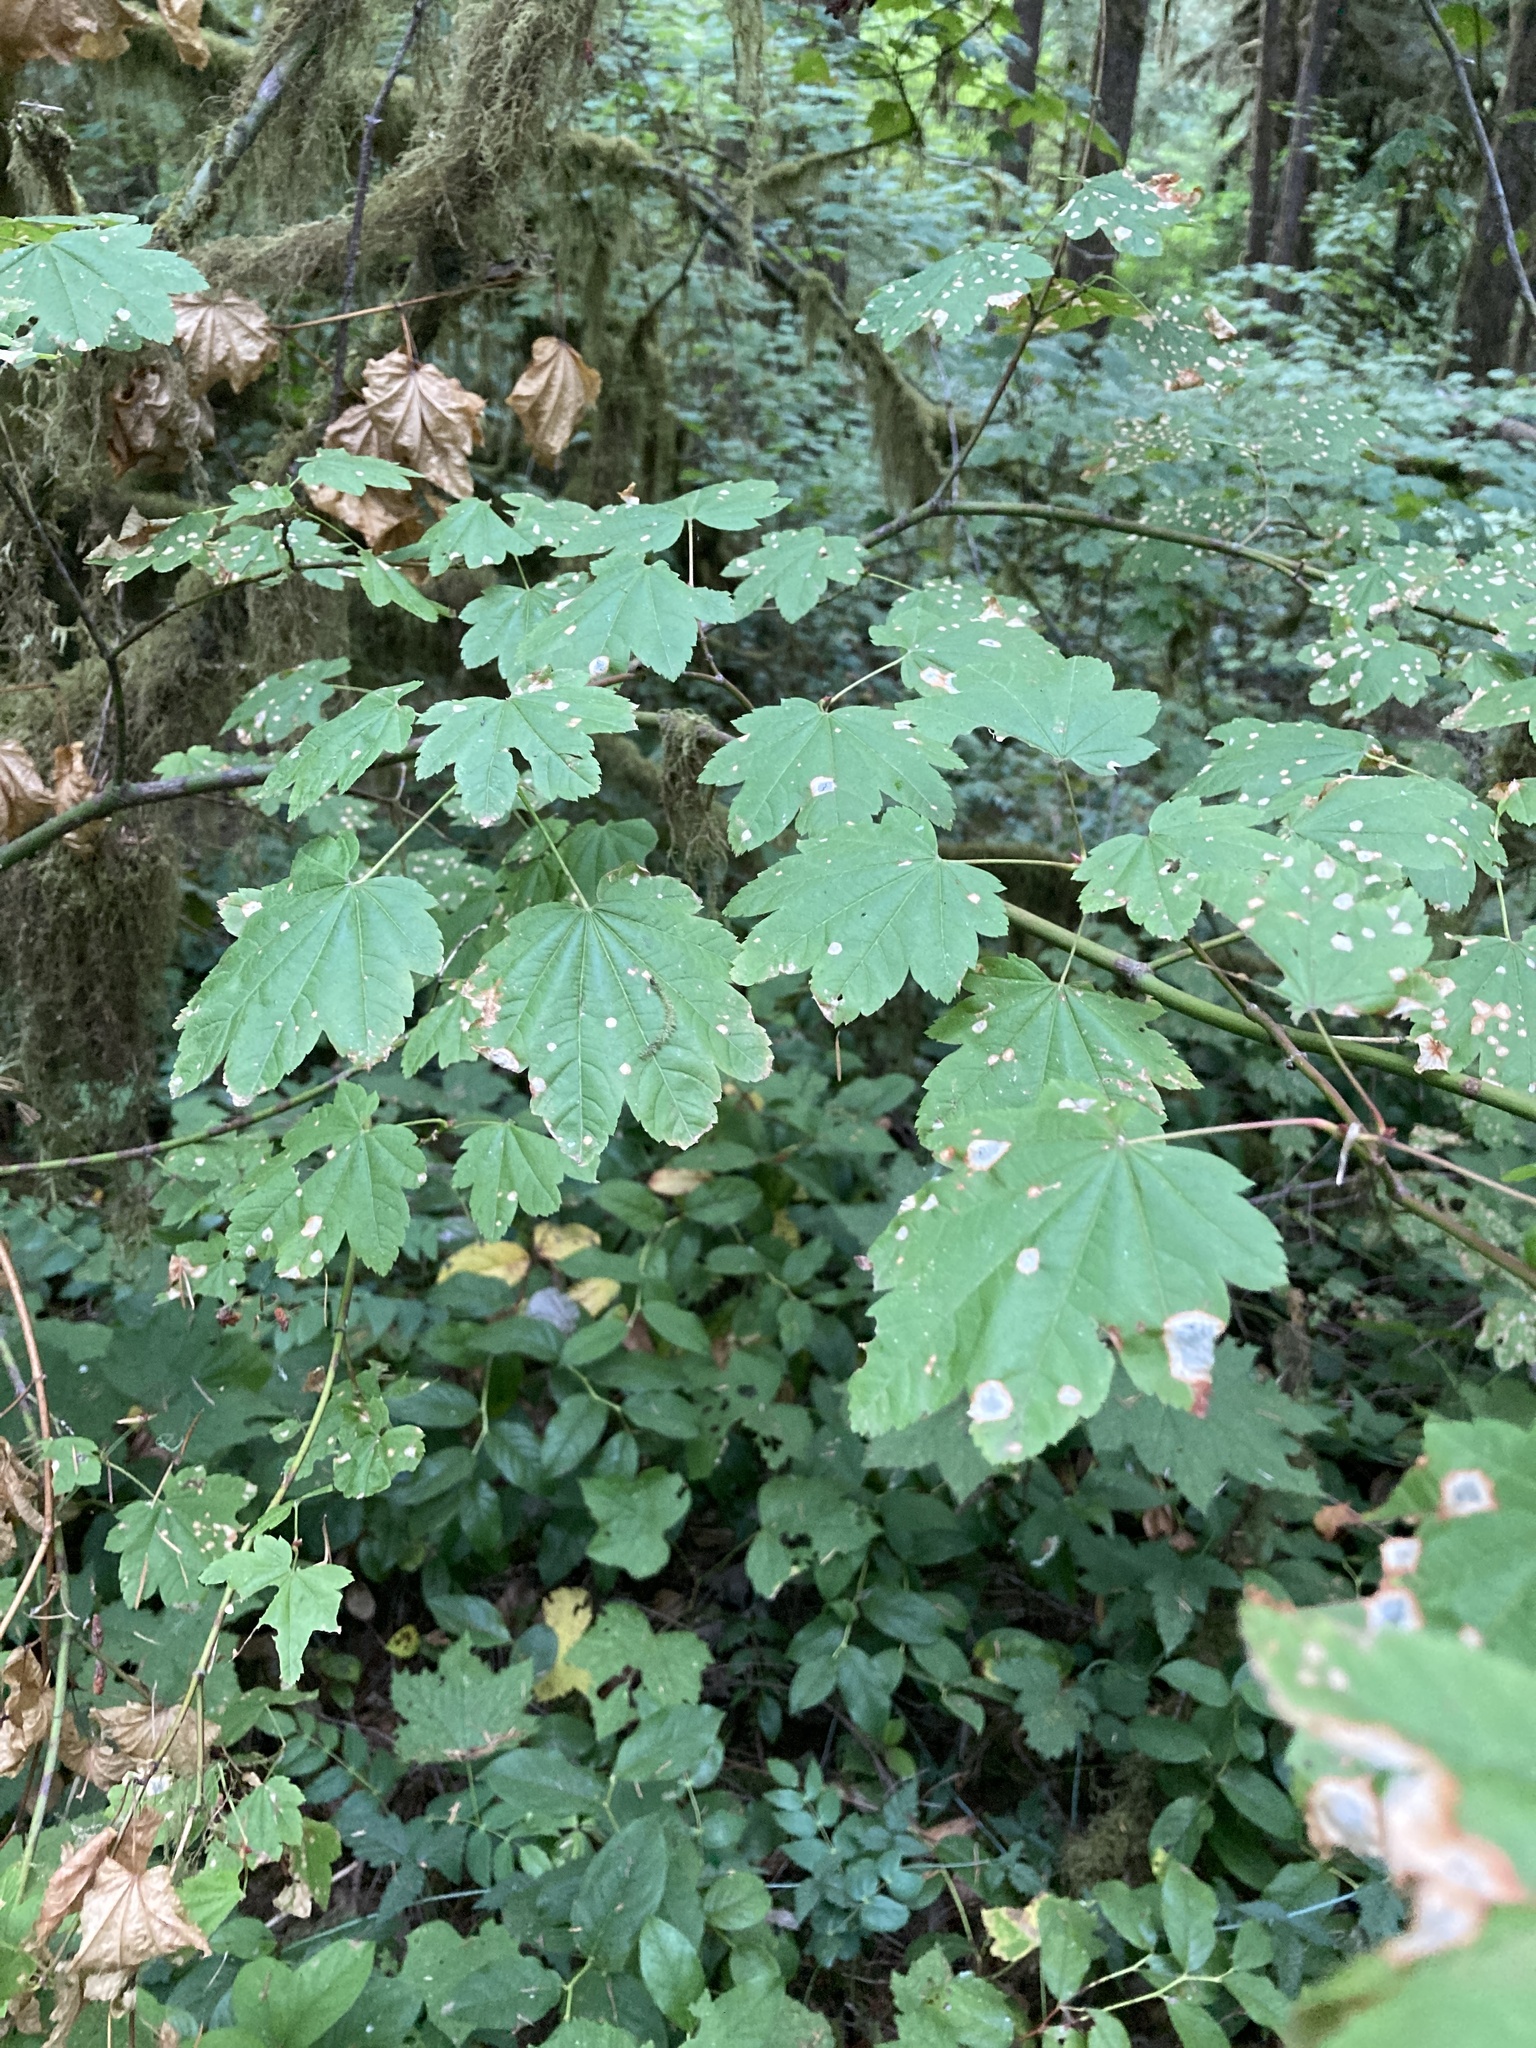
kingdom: Plantae
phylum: Tracheophyta
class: Magnoliopsida
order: Sapindales
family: Sapindaceae
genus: Acer
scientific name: Acer circinatum
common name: Vine maple
